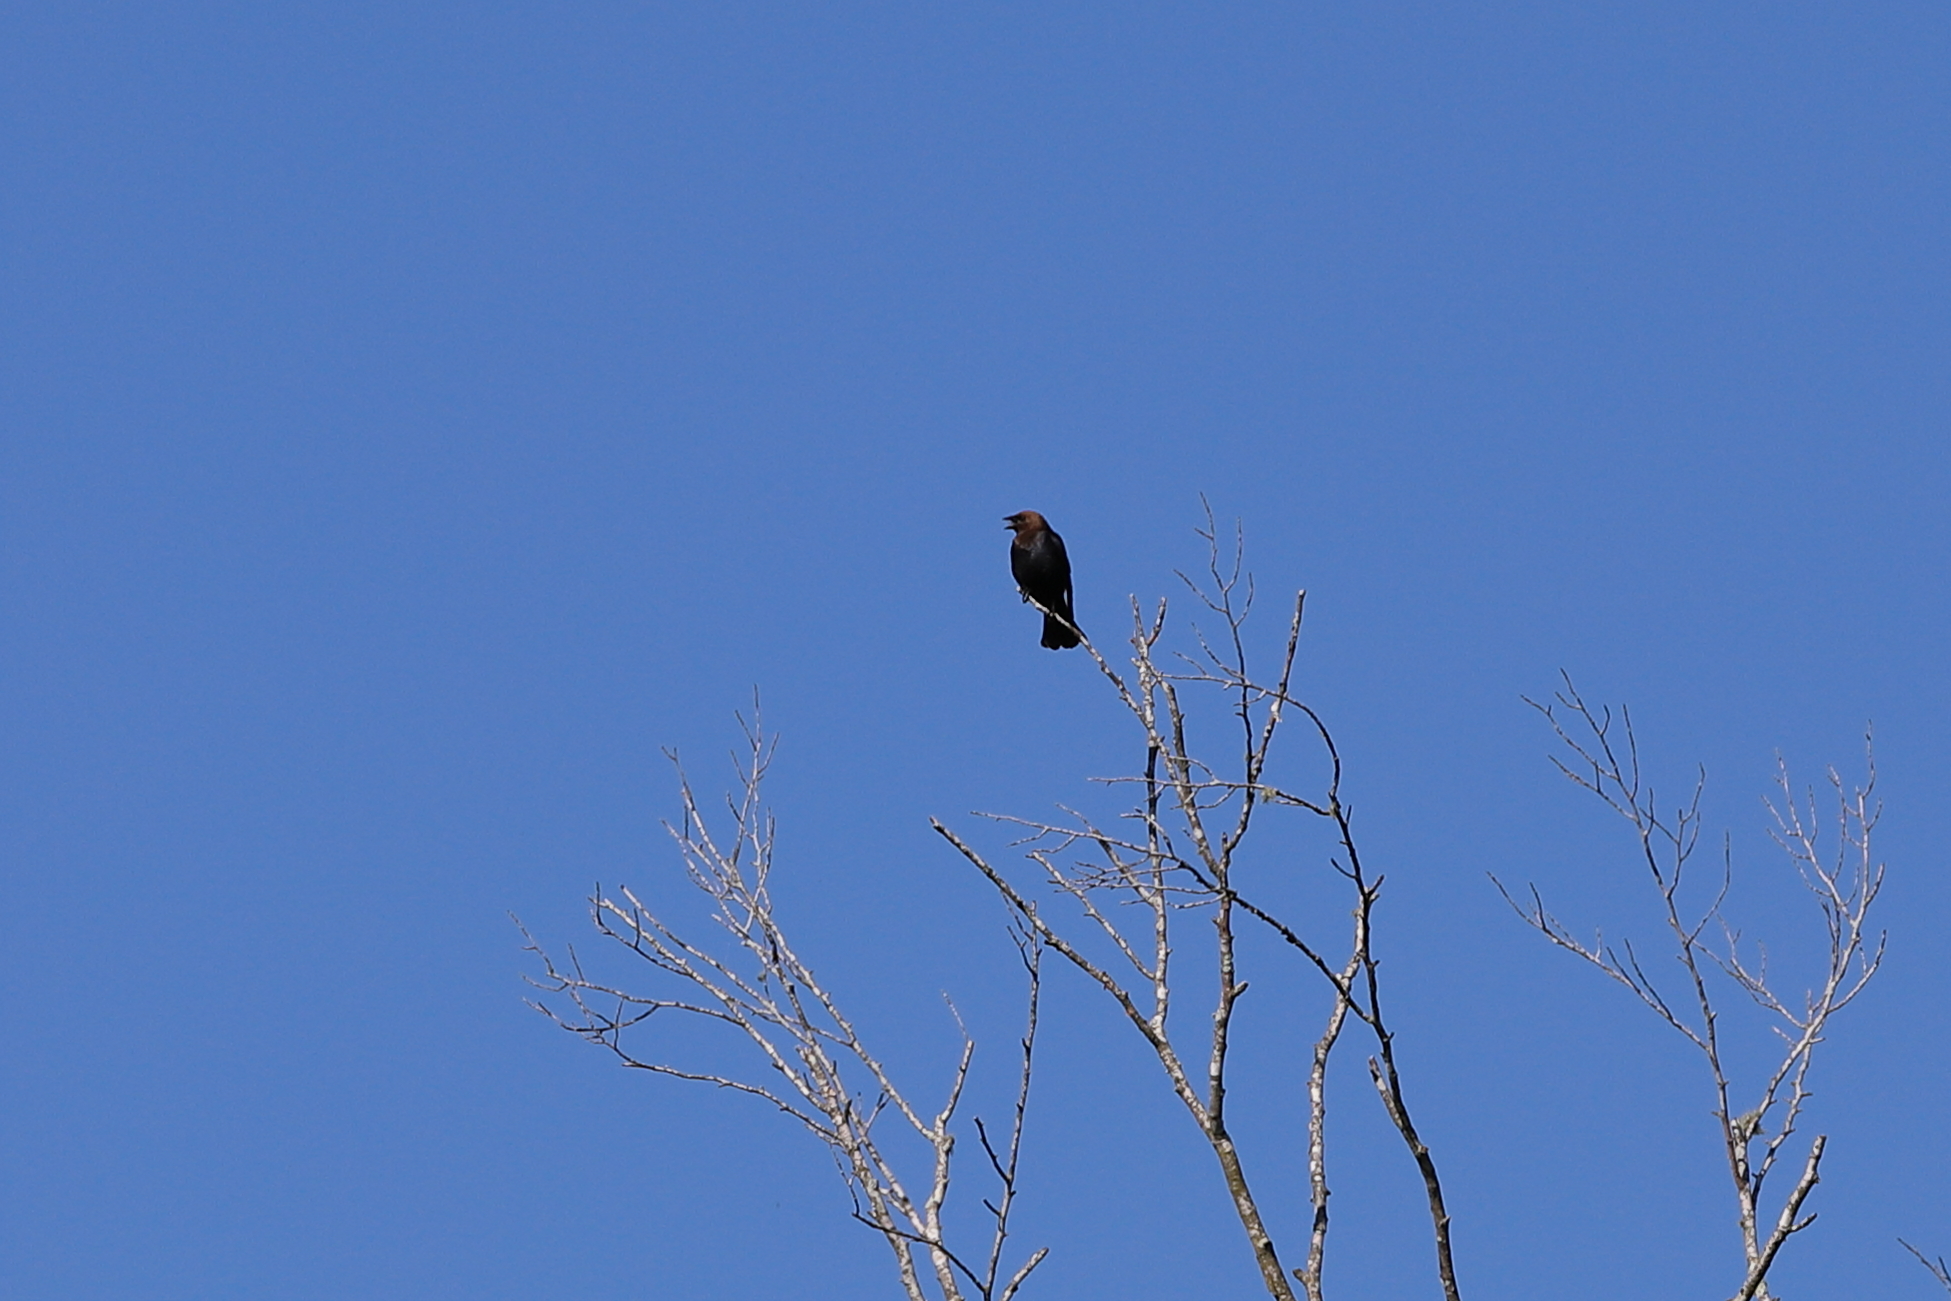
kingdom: Animalia
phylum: Chordata
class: Aves
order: Passeriformes
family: Icteridae
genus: Molothrus
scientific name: Molothrus ater
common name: Brown-headed cowbird
